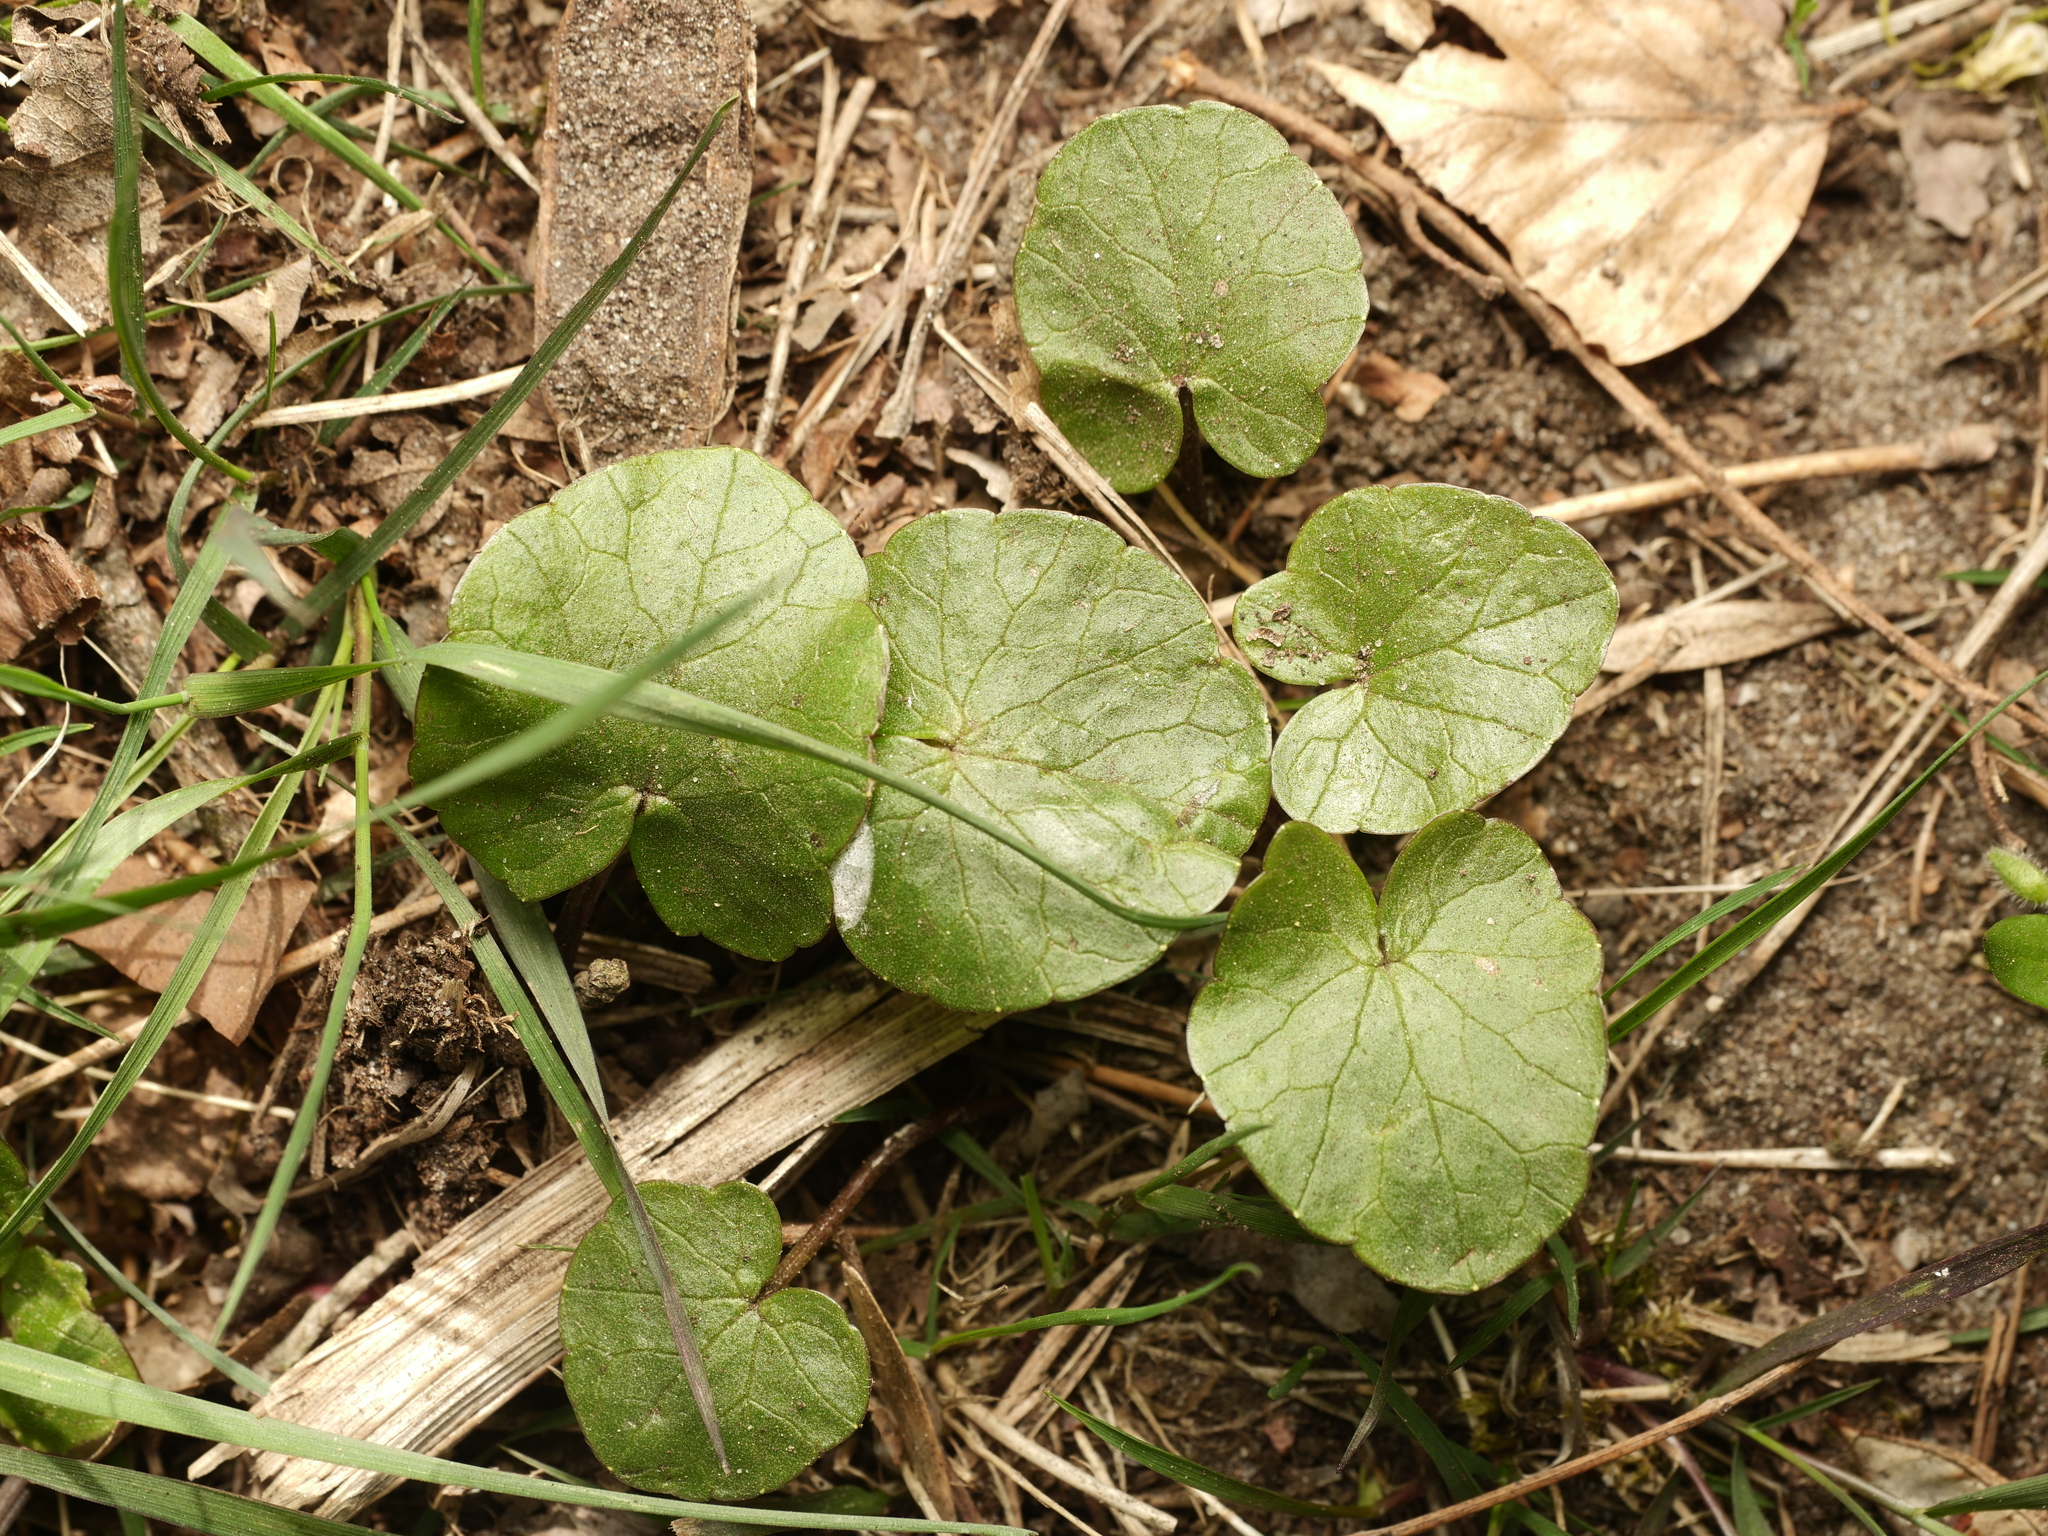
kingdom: Plantae
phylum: Tracheophyta
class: Magnoliopsida
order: Ranunculales
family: Ranunculaceae
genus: Ficaria
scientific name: Ficaria verna
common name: Lesser celandine
